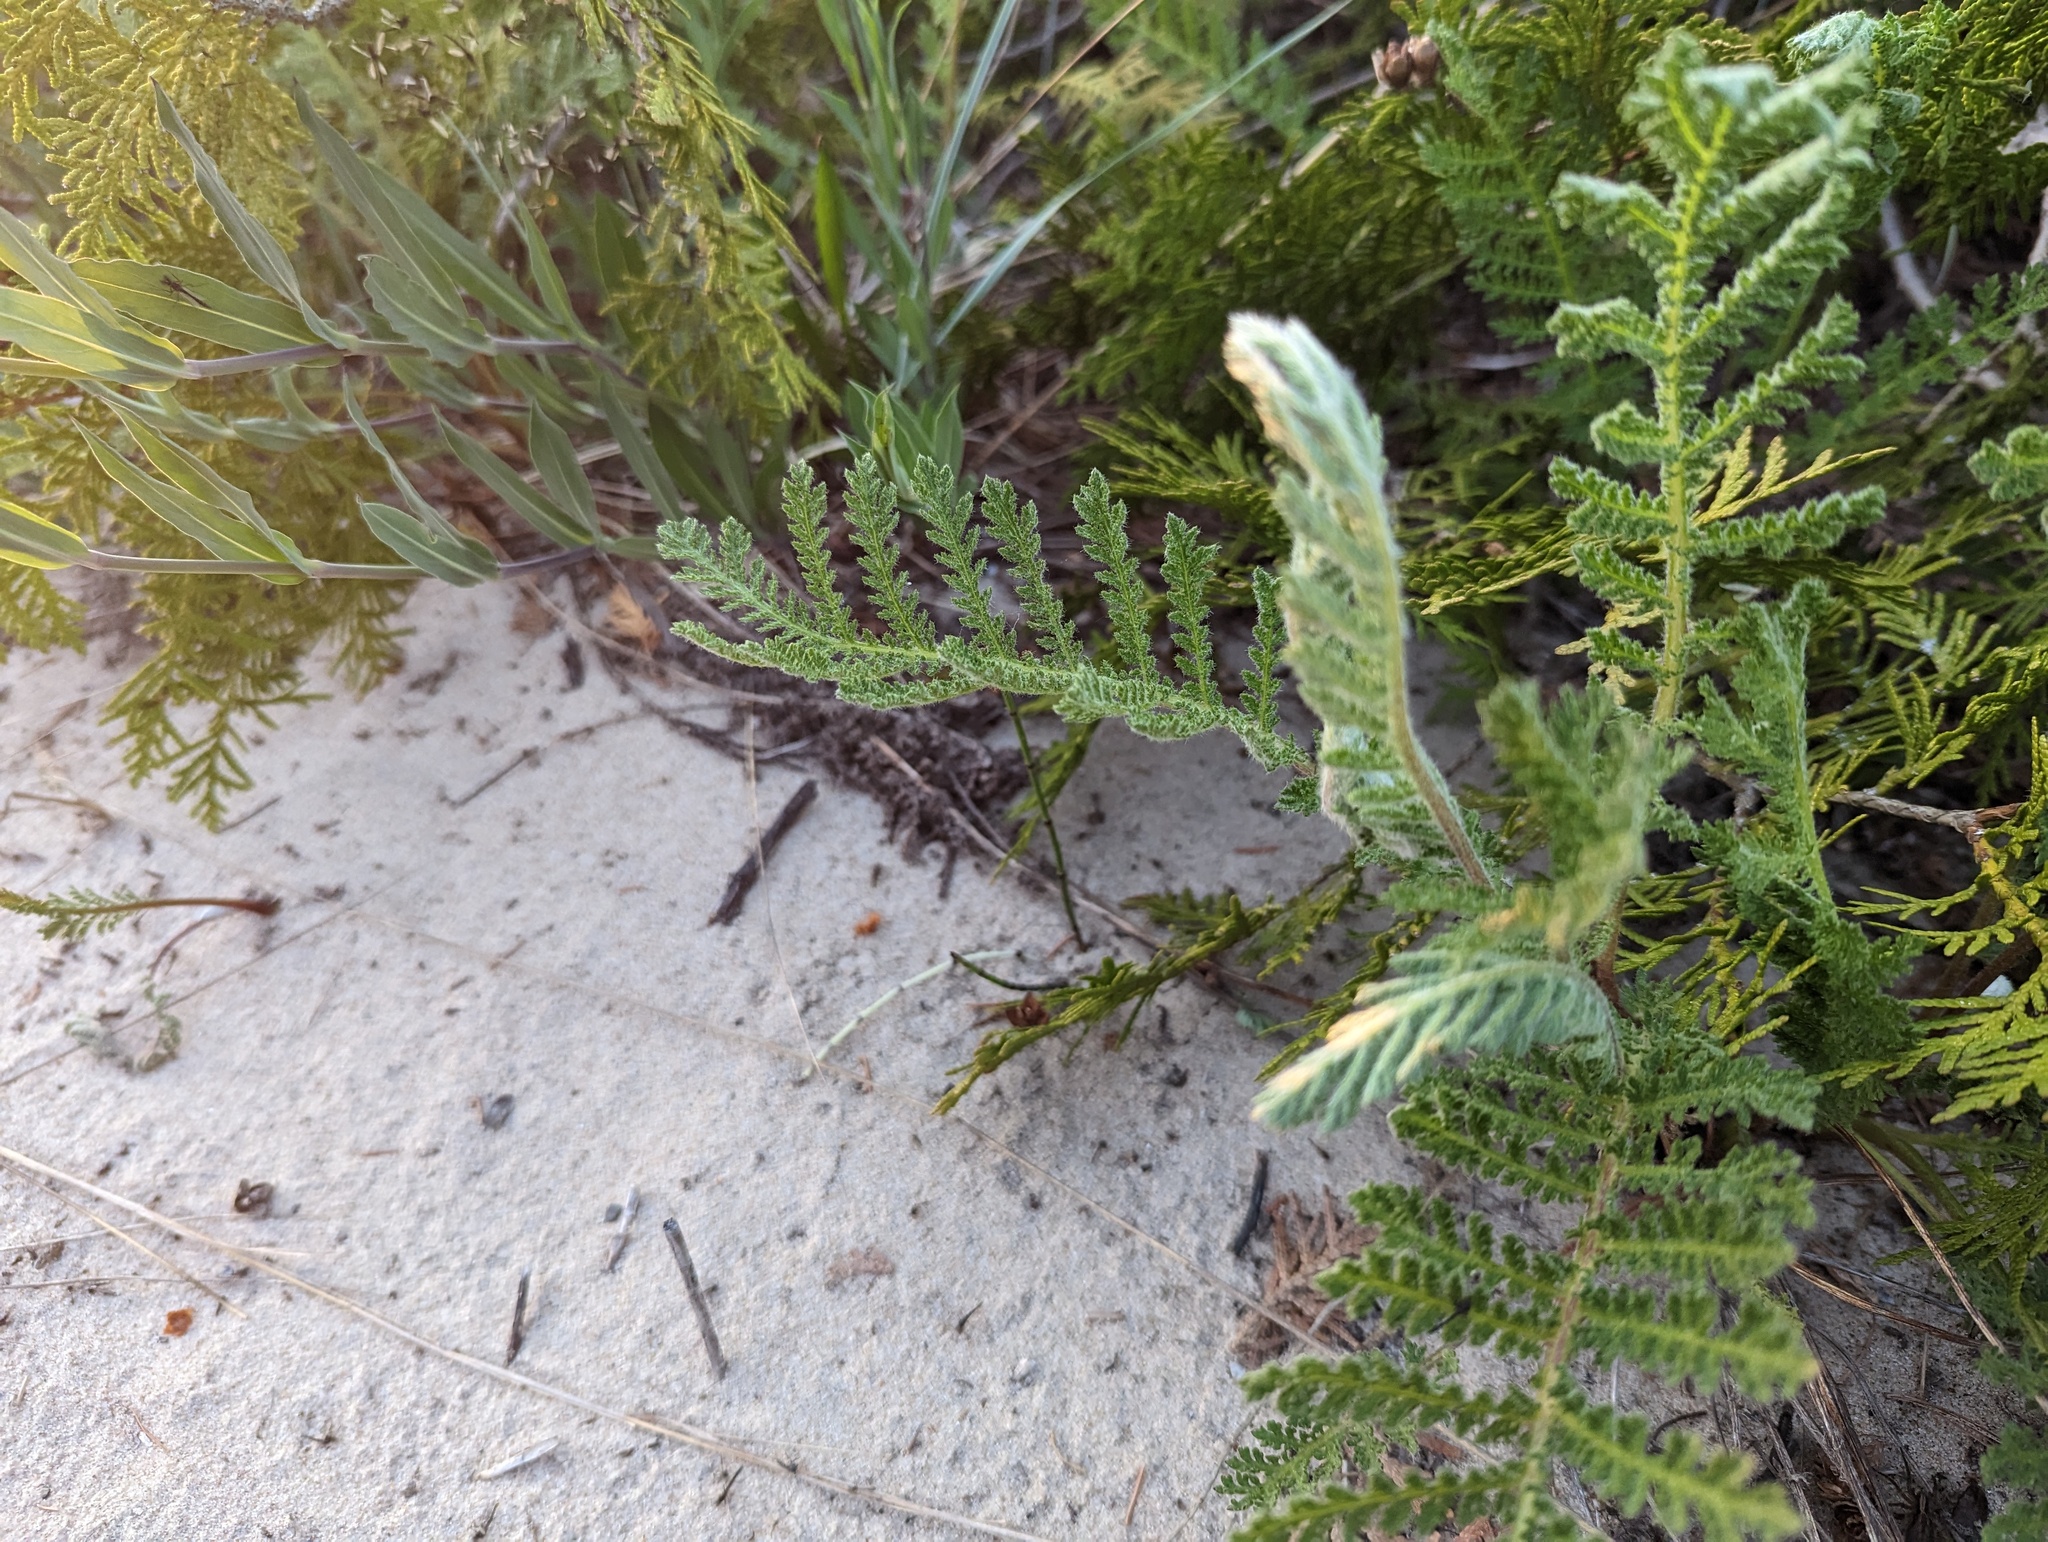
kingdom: Plantae
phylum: Tracheophyta
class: Magnoliopsida
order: Asterales
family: Asteraceae
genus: Tanacetum
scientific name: Tanacetum bipinnatum
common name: Dwarf tansy
